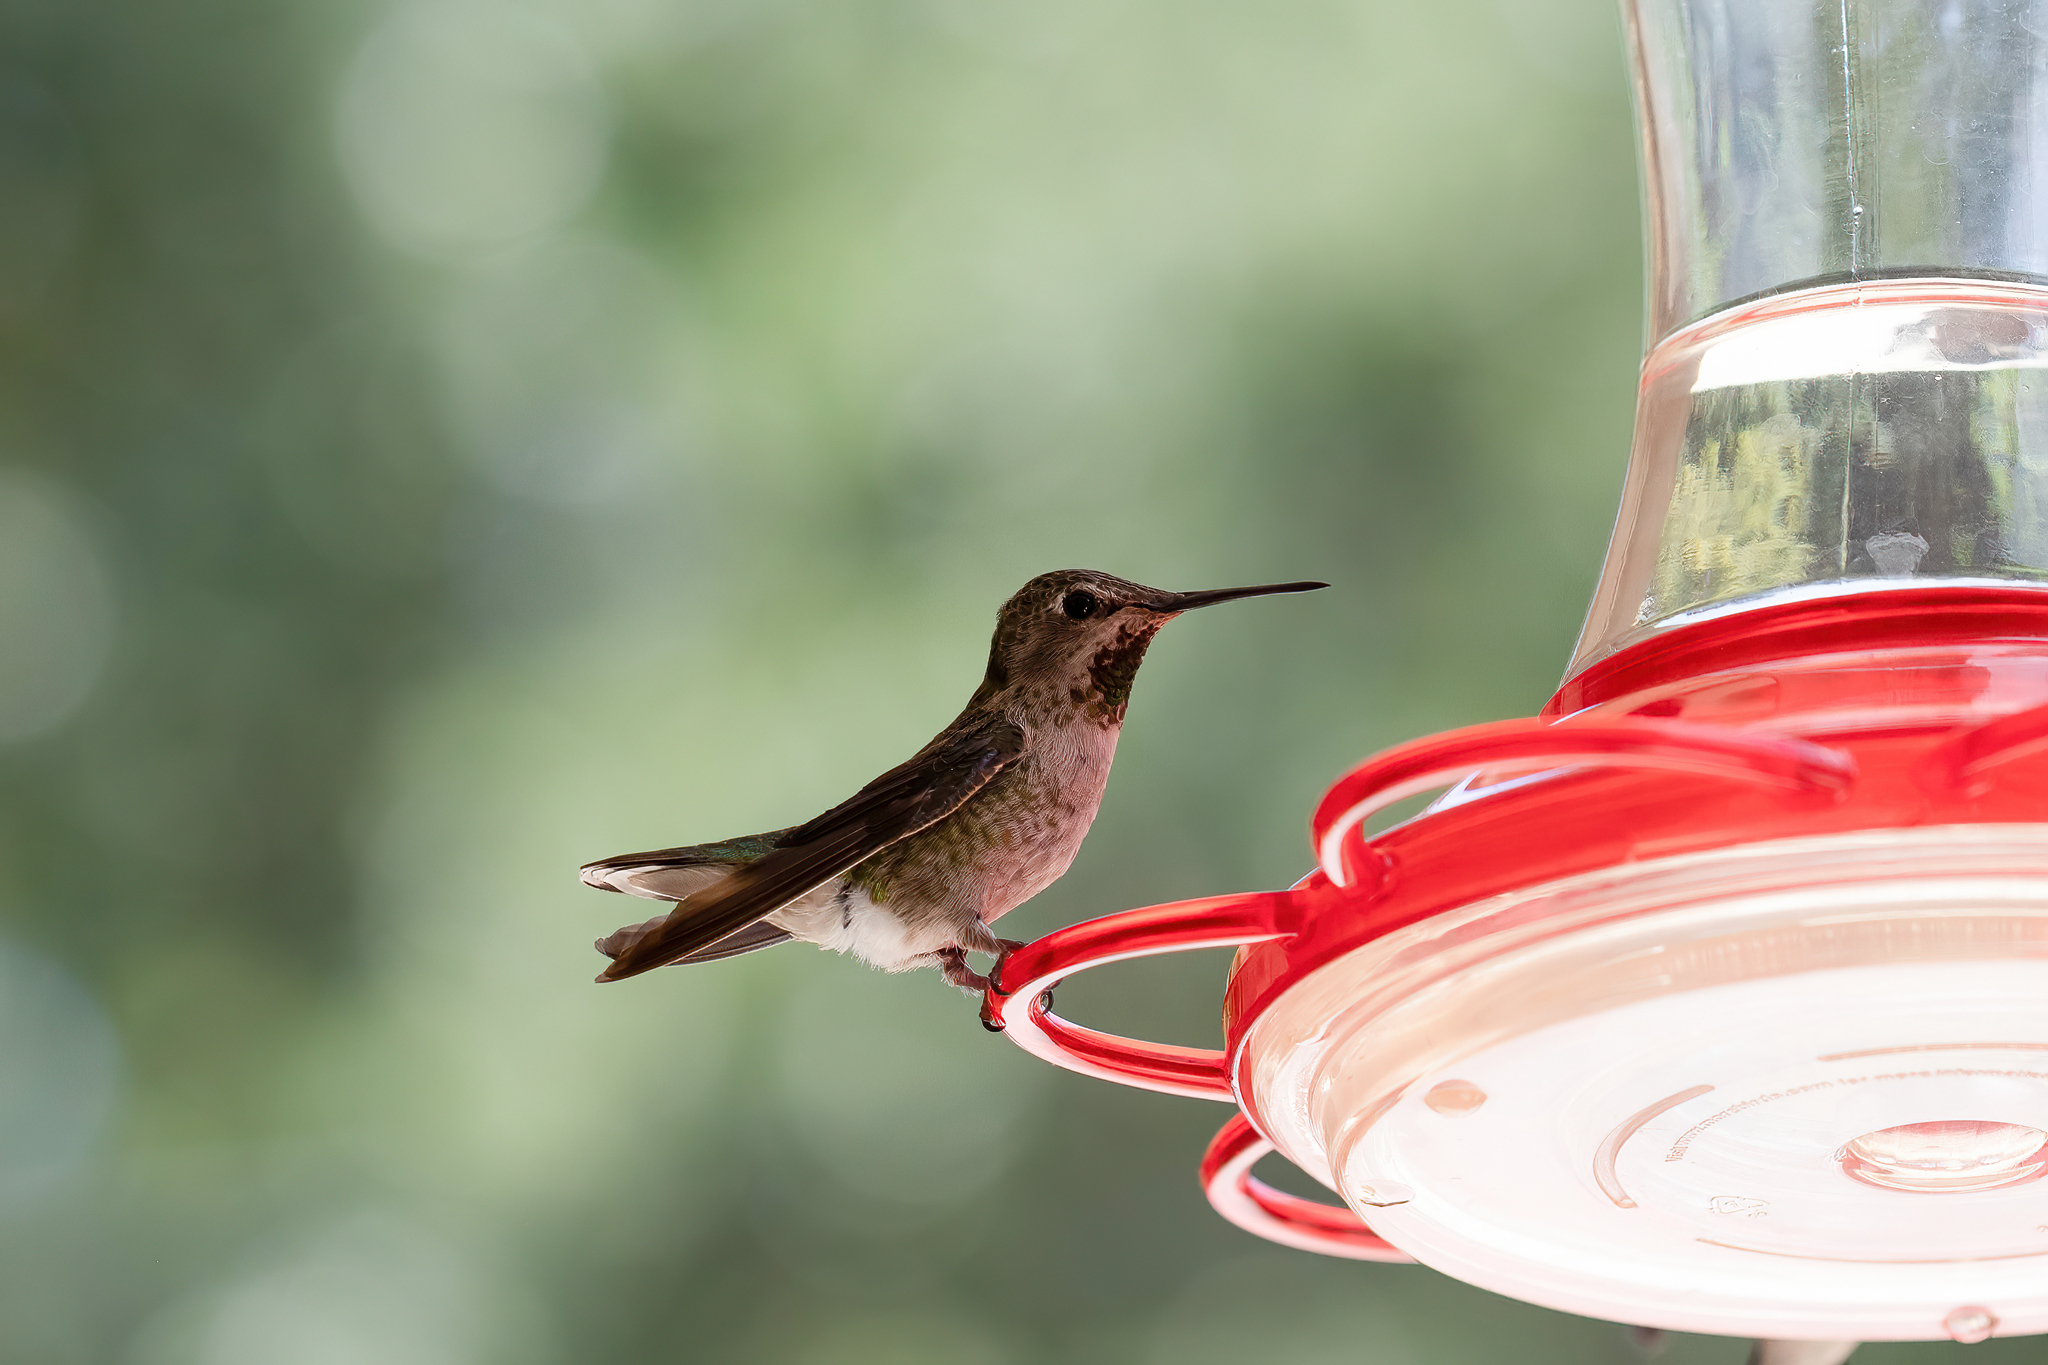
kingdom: Animalia
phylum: Chordata
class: Aves
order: Apodiformes
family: Trochilidae
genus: Calypte
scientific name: Calypte anna
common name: Anna's hummingbird
